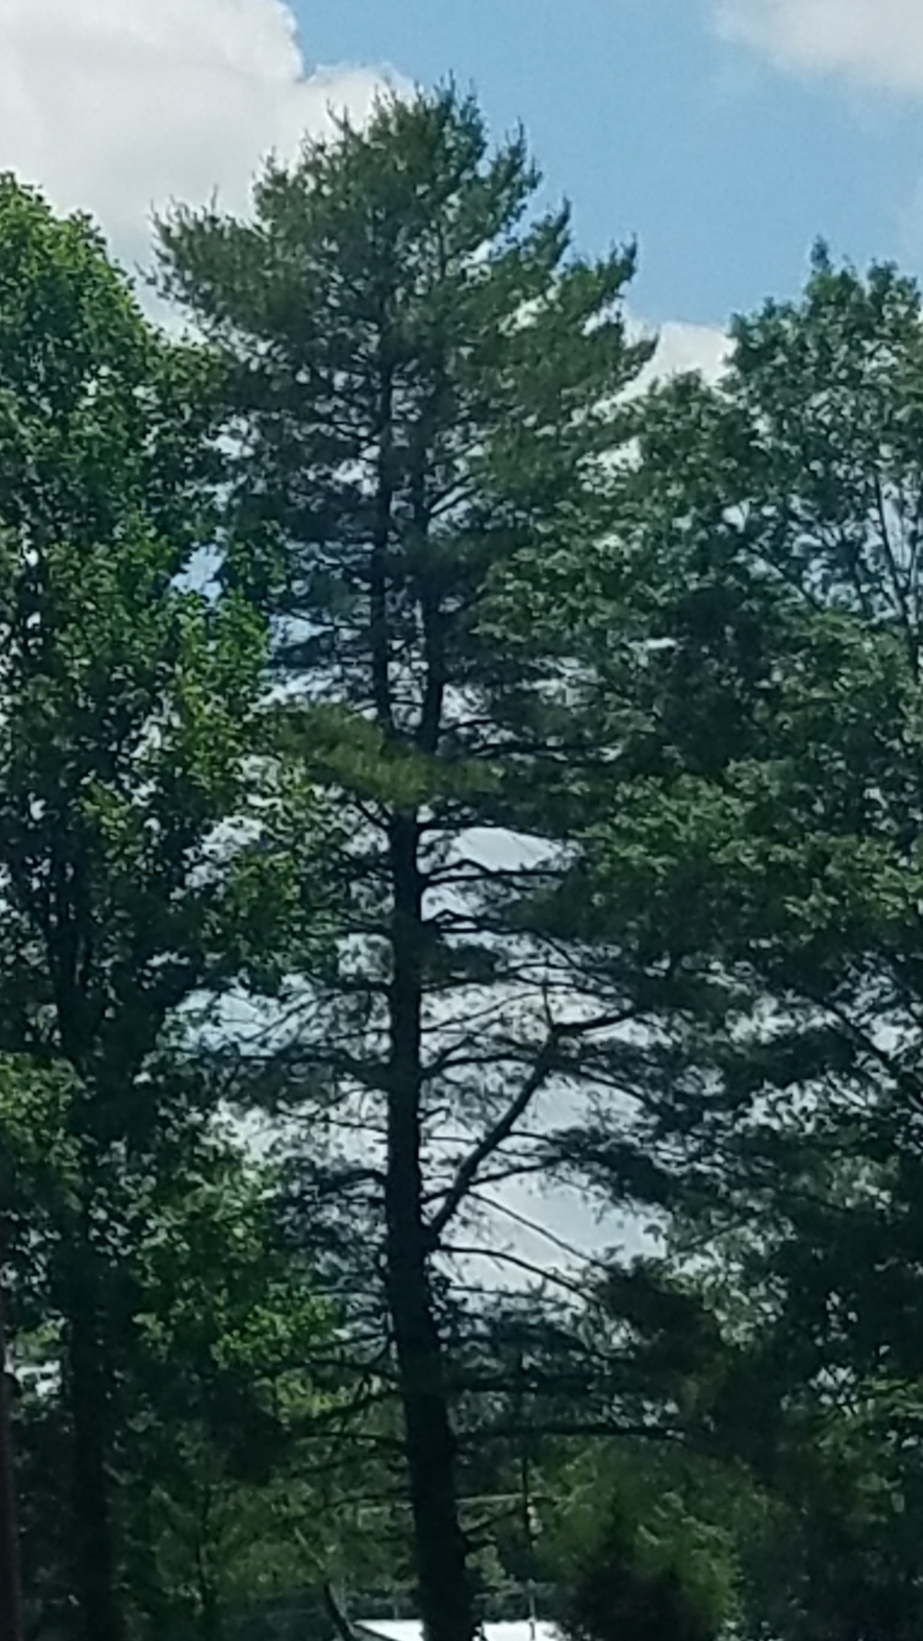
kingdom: Plantae
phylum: Tracheophyta
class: Pinopsida
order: Pinales
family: Pinaceae
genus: Pinus
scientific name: Pinus strobus
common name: Weymouth pine
